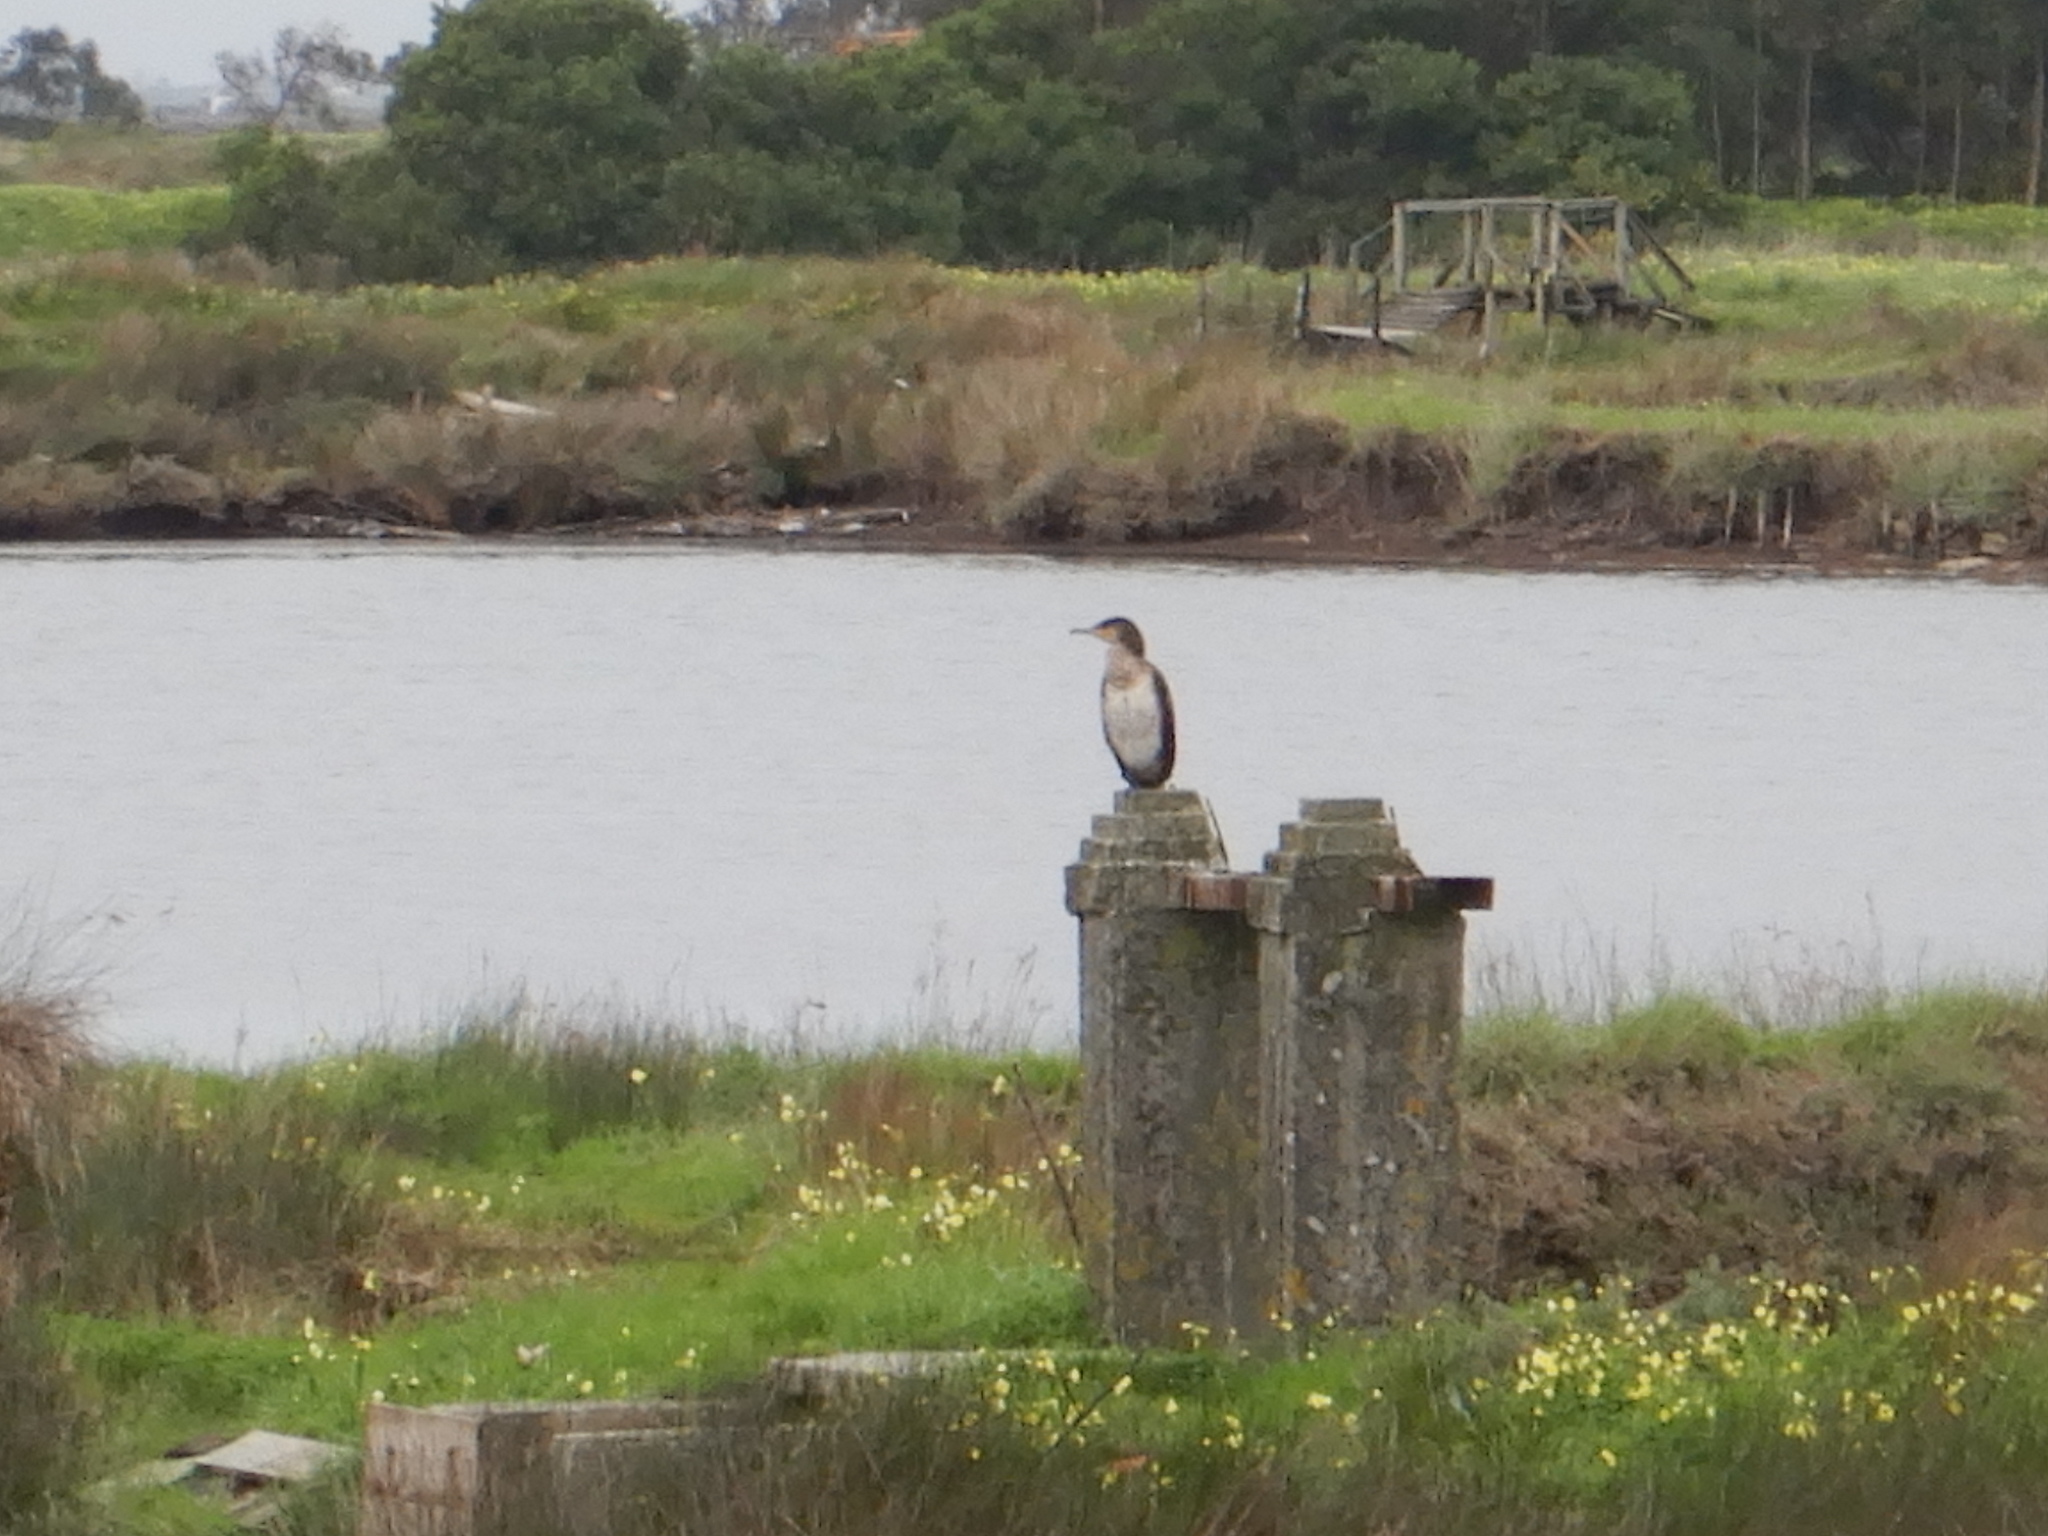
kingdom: Animalia
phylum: Chordata
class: Aves
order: Suliformes
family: Phalacrocoracidae
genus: Phalacrocorax
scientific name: Phalacrocorax carbo
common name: Great cormorant
